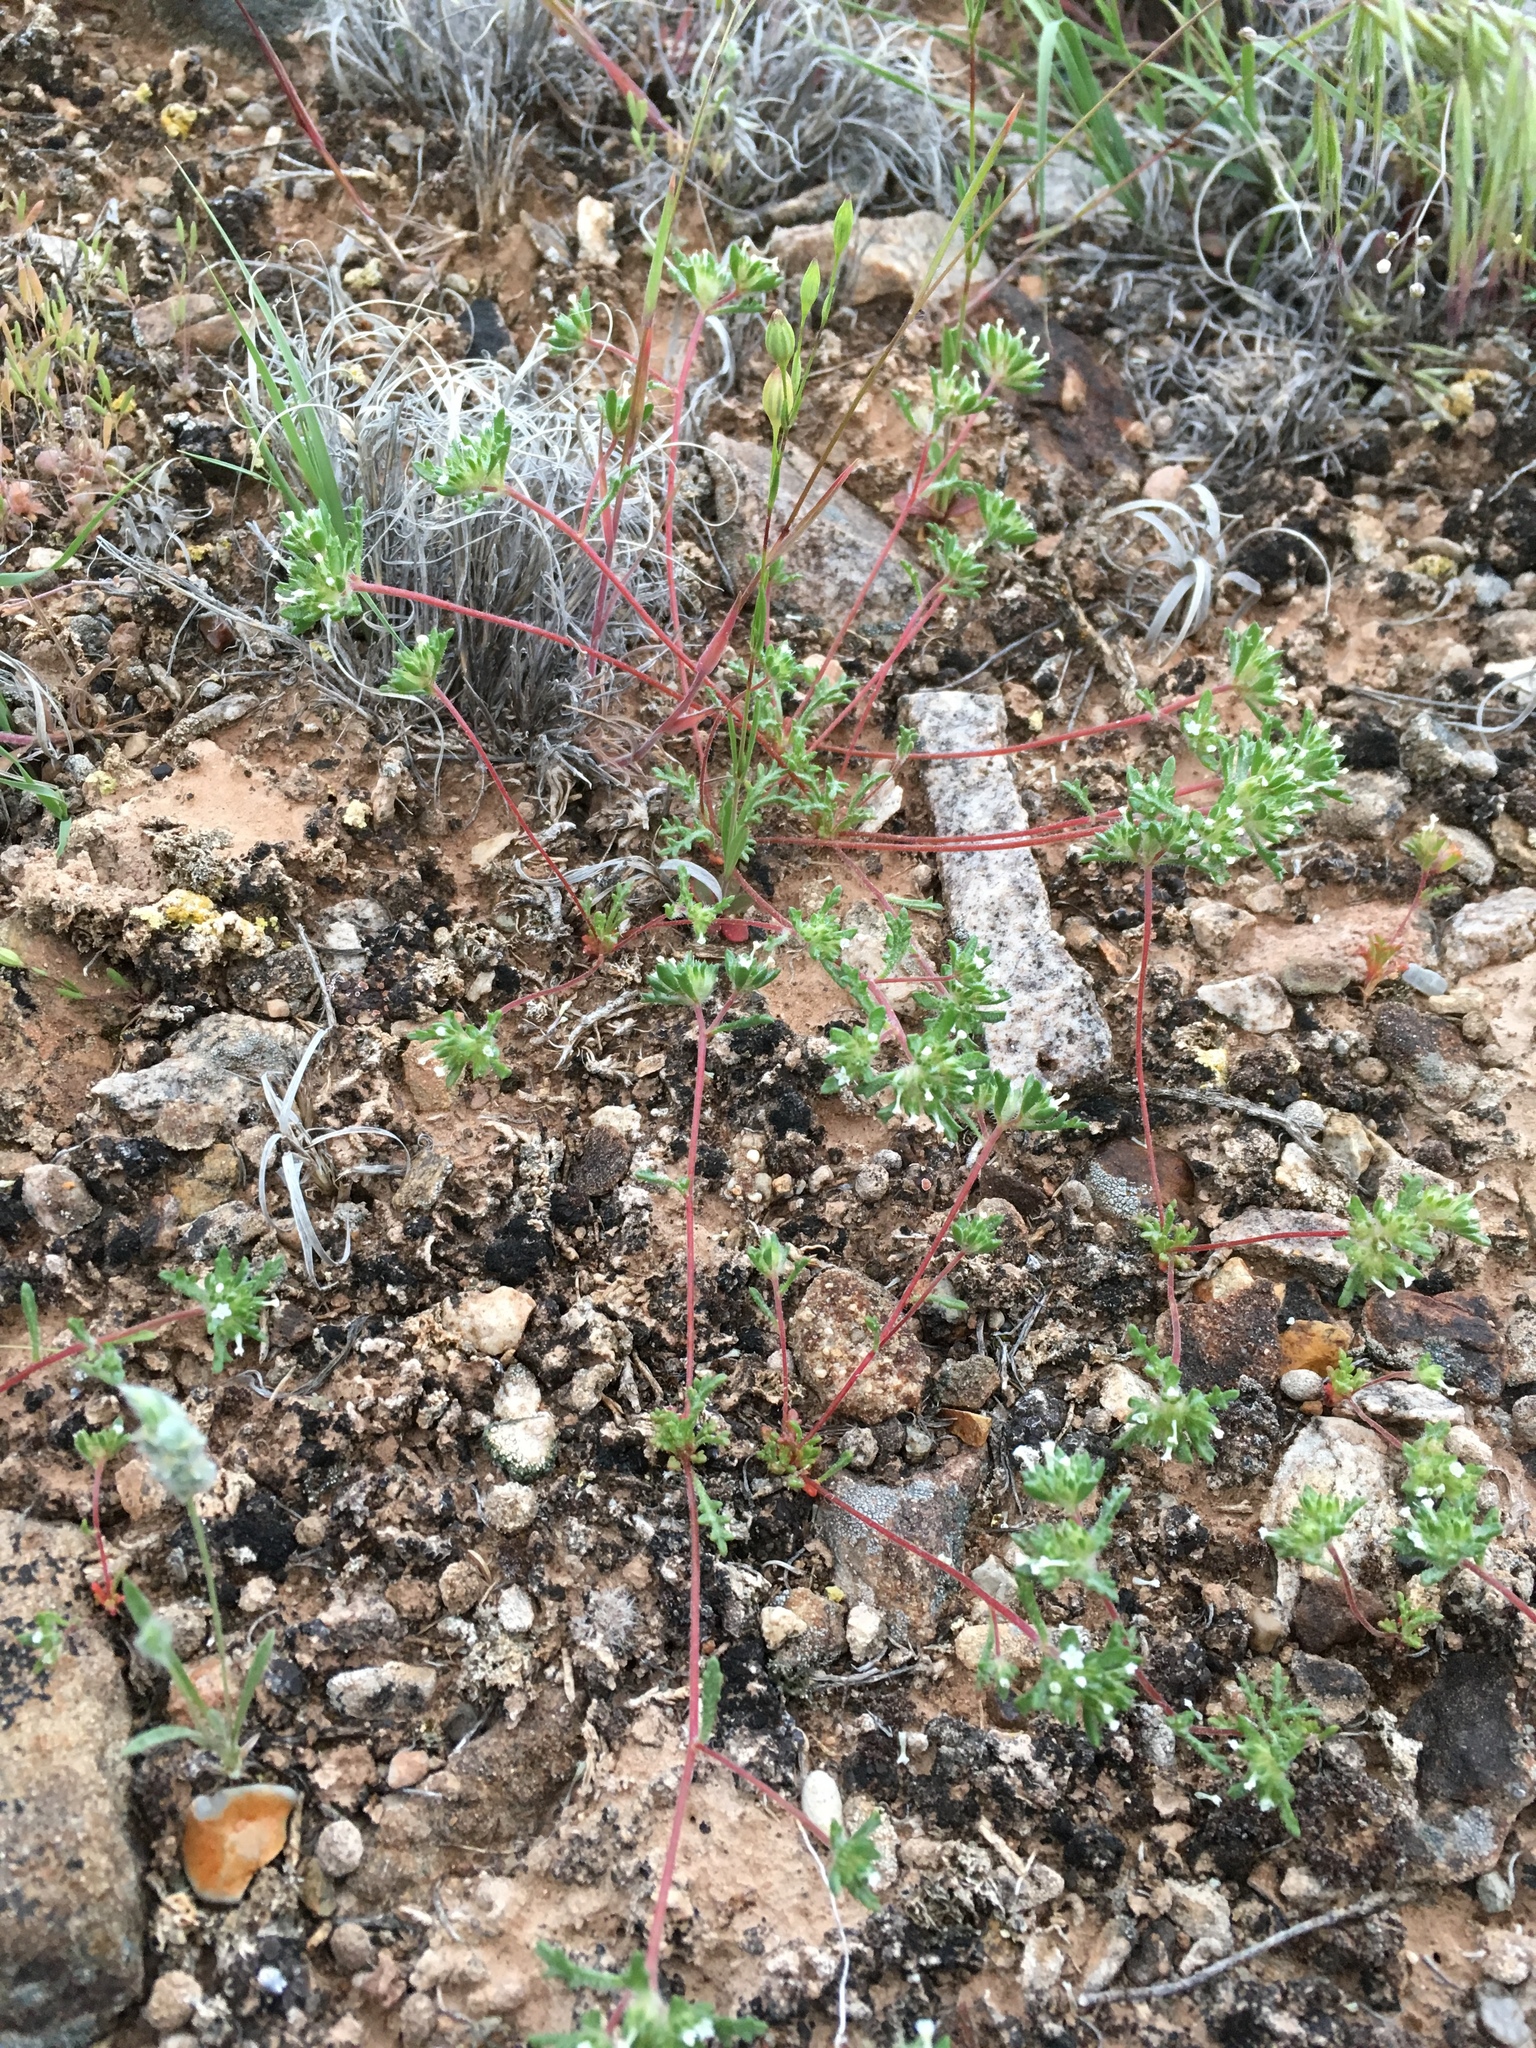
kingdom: Plantae
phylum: Tracheophyta
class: Magnoliopsida
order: Ericales
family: Polemoniaceae
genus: Ipomopsis
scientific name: Ipomopsis polycladon
